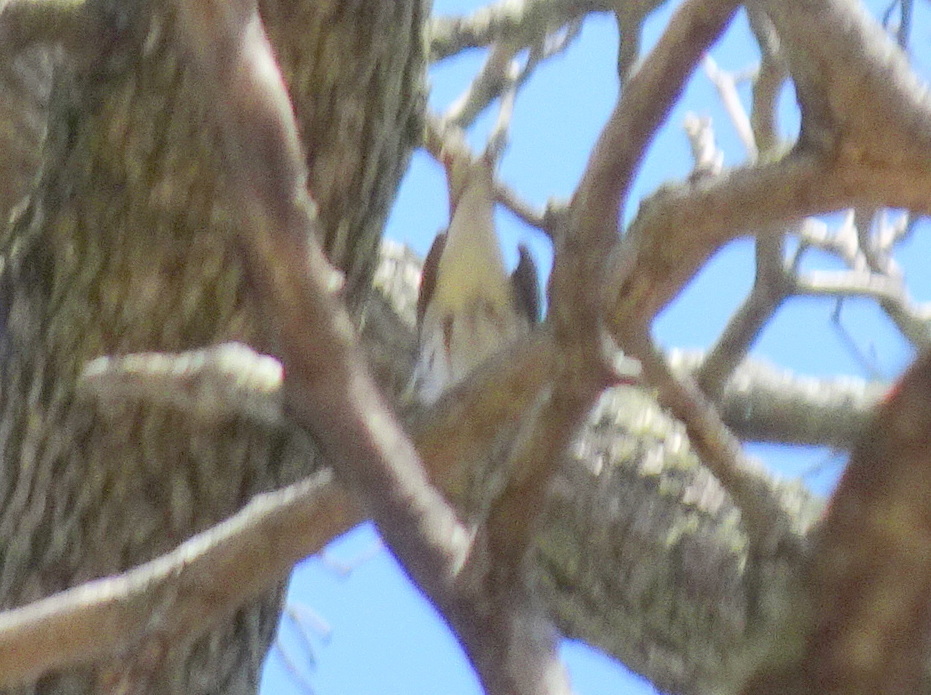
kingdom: Animalia
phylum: Chordata
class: Aves
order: Passeriformes
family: Parulidae
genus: Setophaga
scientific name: Setophaga striata
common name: Blackpoll warbler
